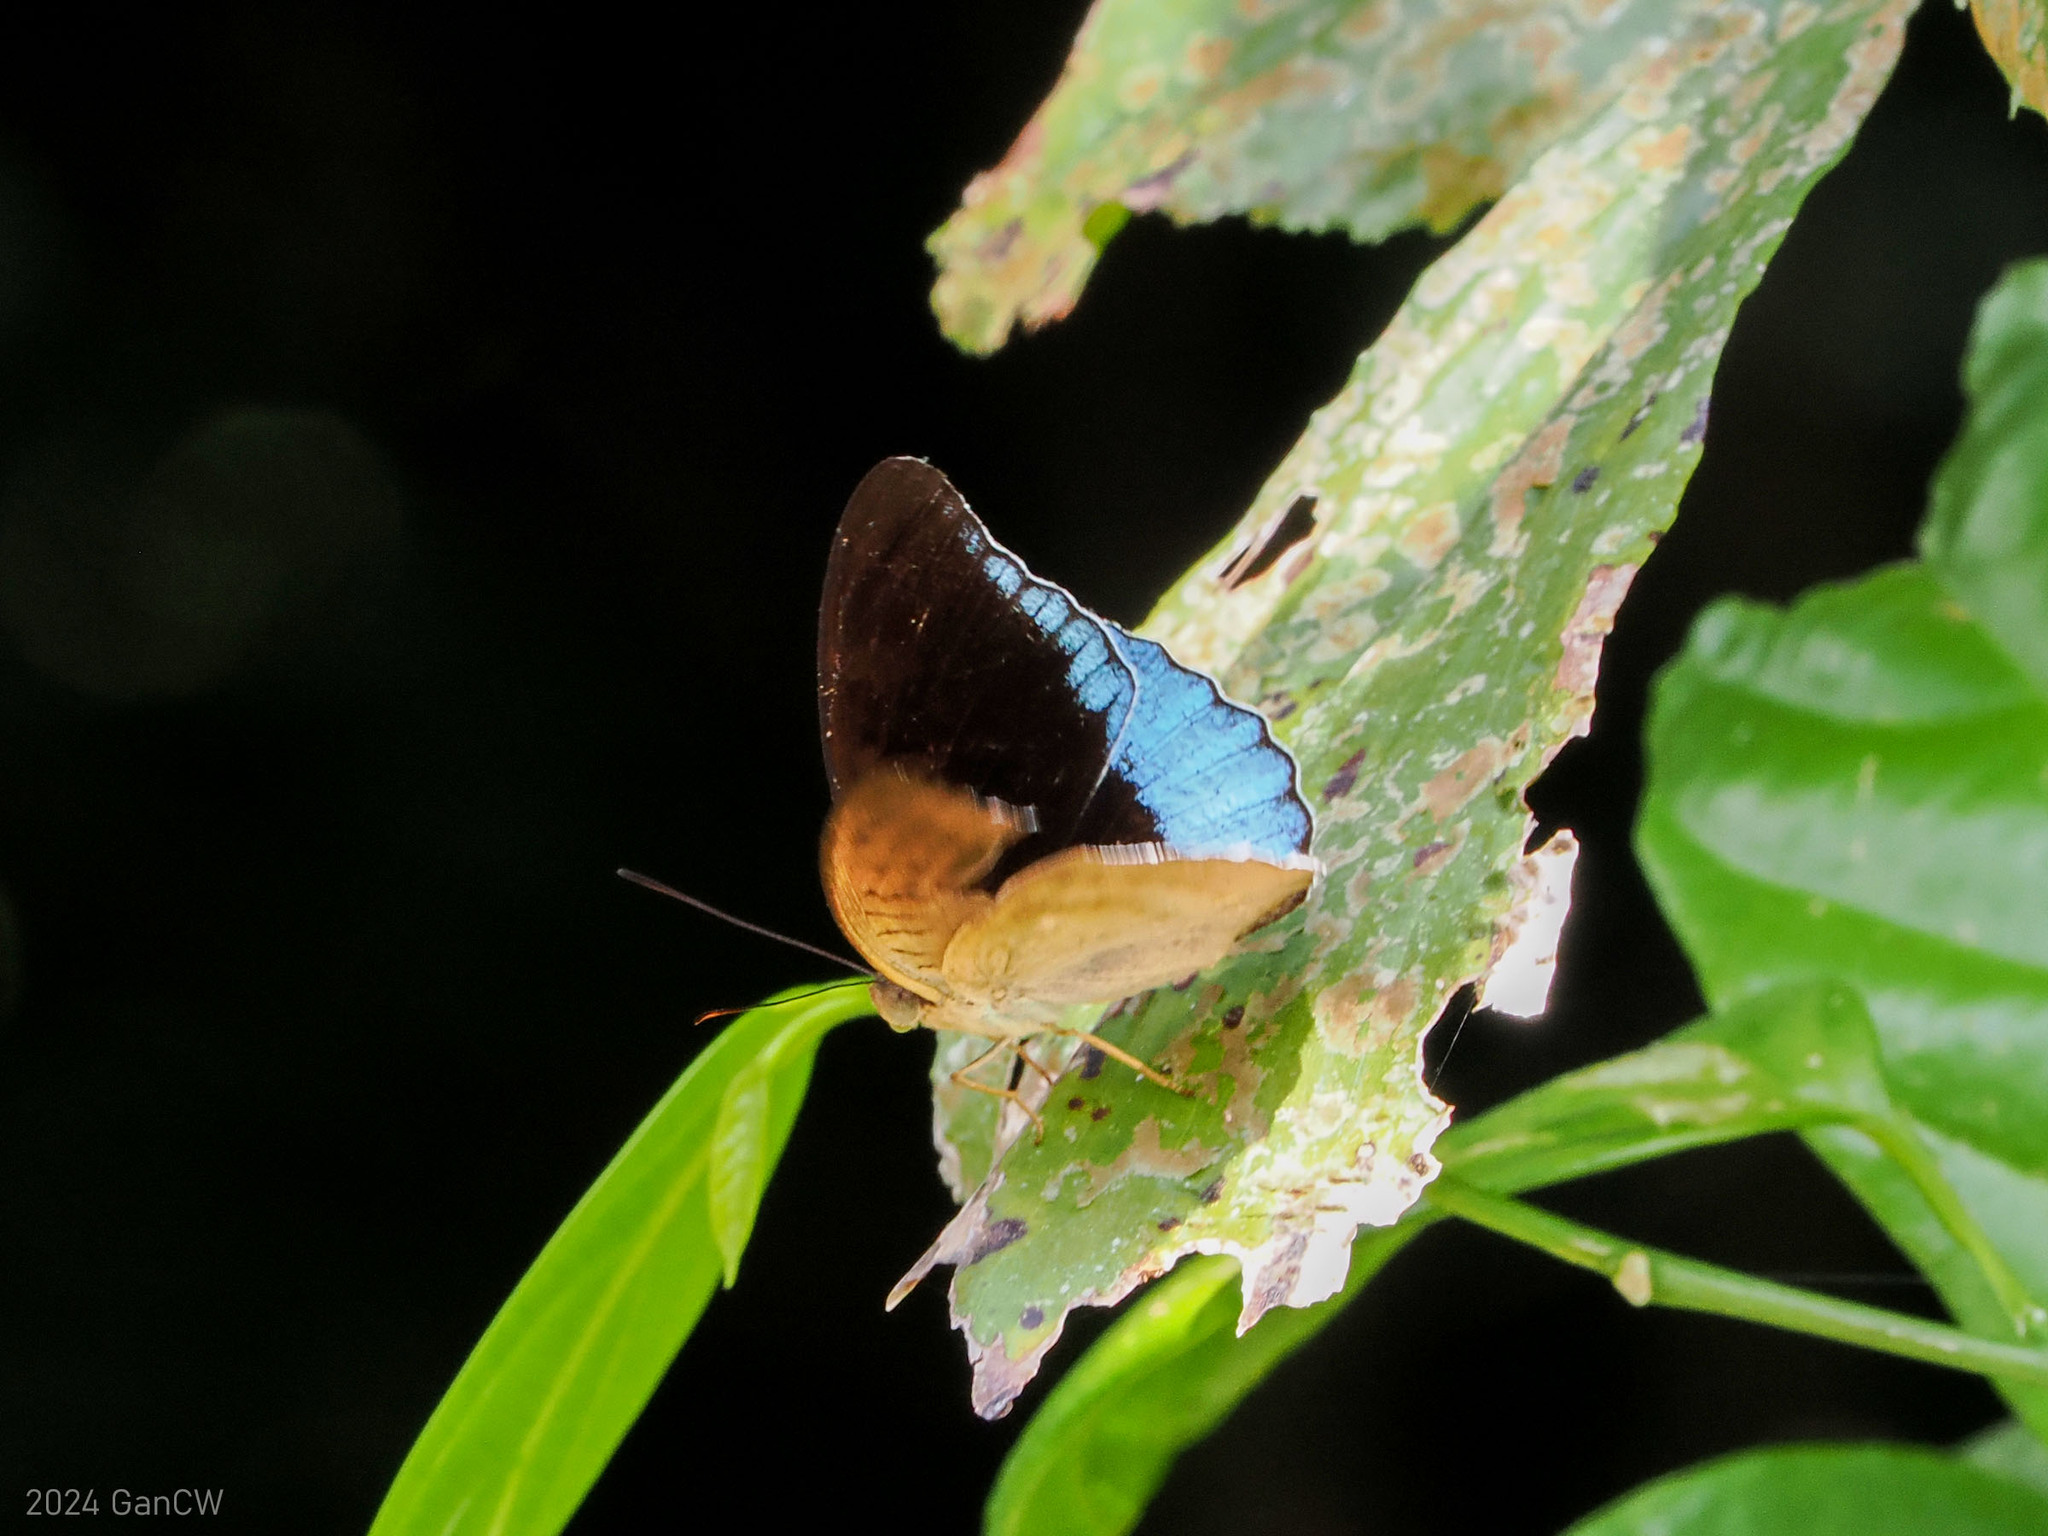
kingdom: Animalia
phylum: Arthropoda
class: Insecta
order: Lepidoptera
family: Nymphalidae
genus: Tanaecia
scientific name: Tanaecia iapis
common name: Horsfield's baron
